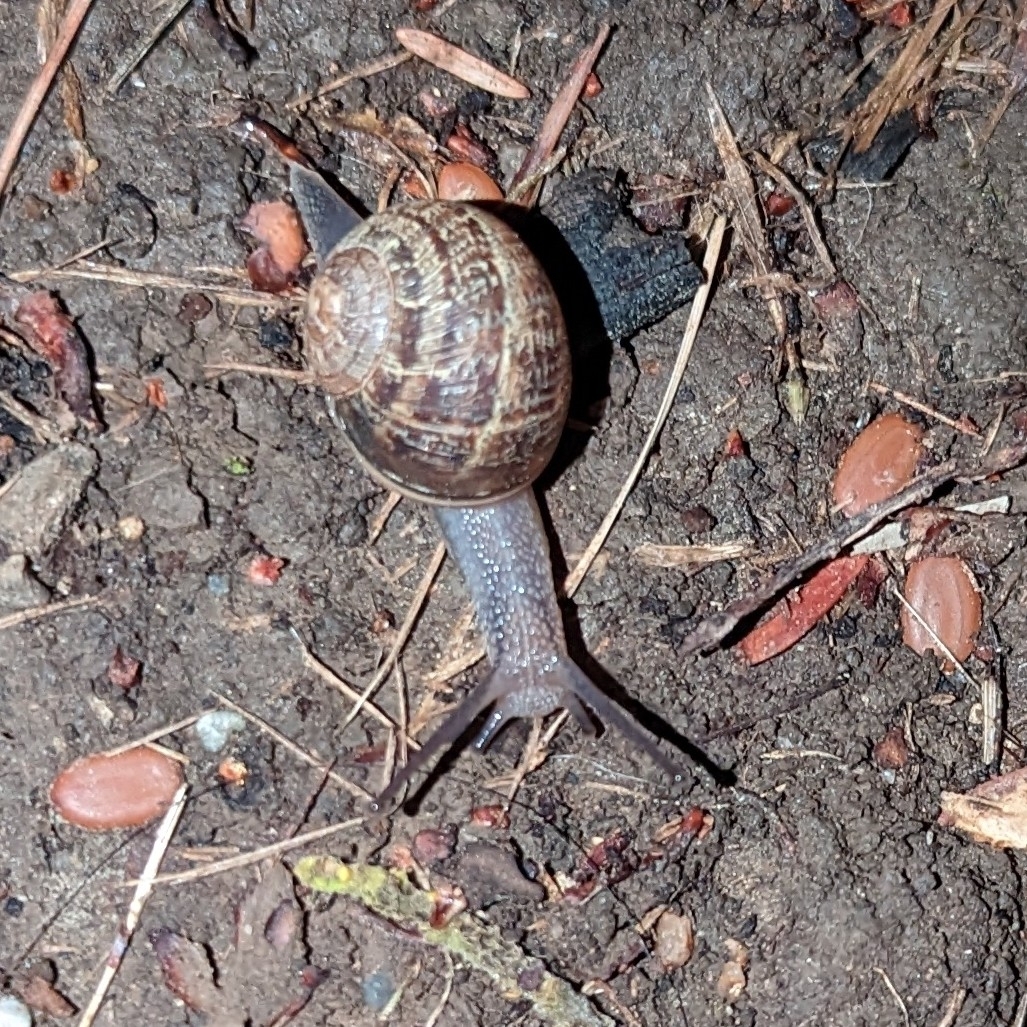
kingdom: Animalia
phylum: Mollusca
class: Gastropoda
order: Stylommatophora
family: Helicidae
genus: Cornu
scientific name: Cornu aspersum
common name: Brown garden snail
